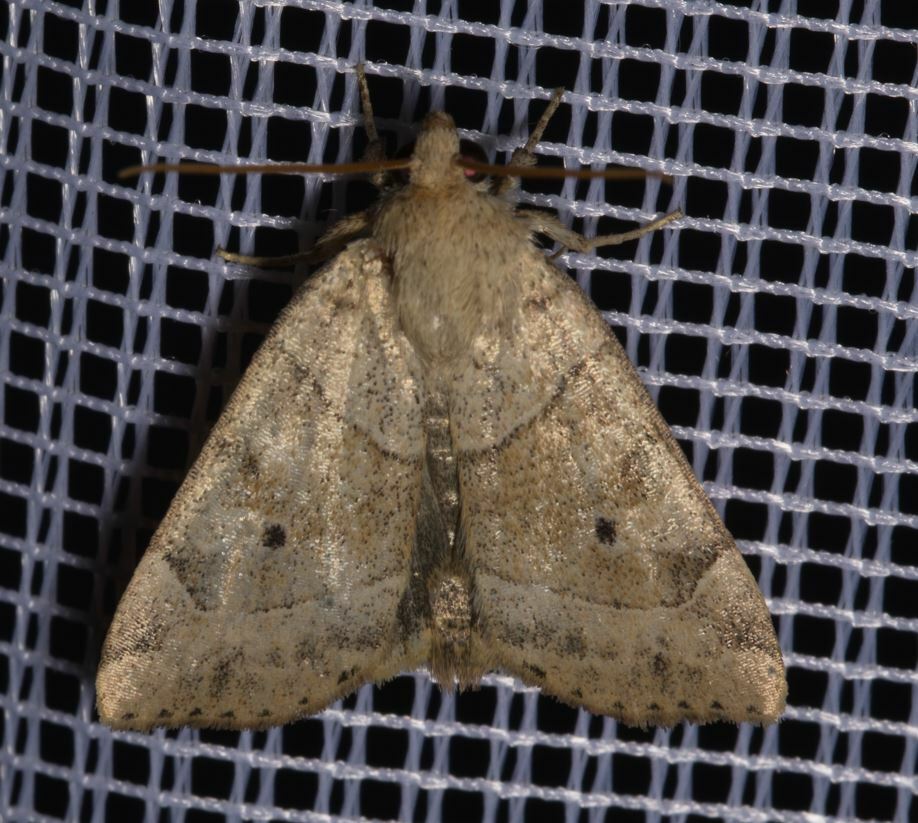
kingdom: Animalia
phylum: Arthropoda
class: Insecta
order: Lepidoptera
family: Noctuidae
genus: Cosmia
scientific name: Cosmia trapezina
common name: Dun-bar
